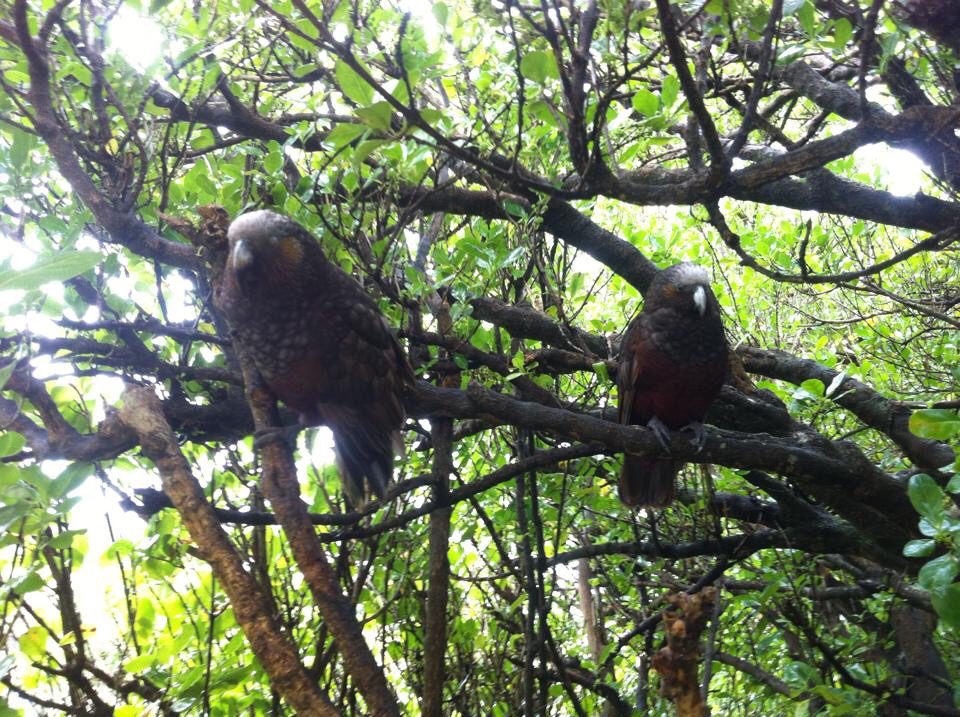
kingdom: Animalia
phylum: Chordata
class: Aves
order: Psittaciformes
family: Psittacidae
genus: Nestor
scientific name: Nestor meridionalis
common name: New zealand kaka
